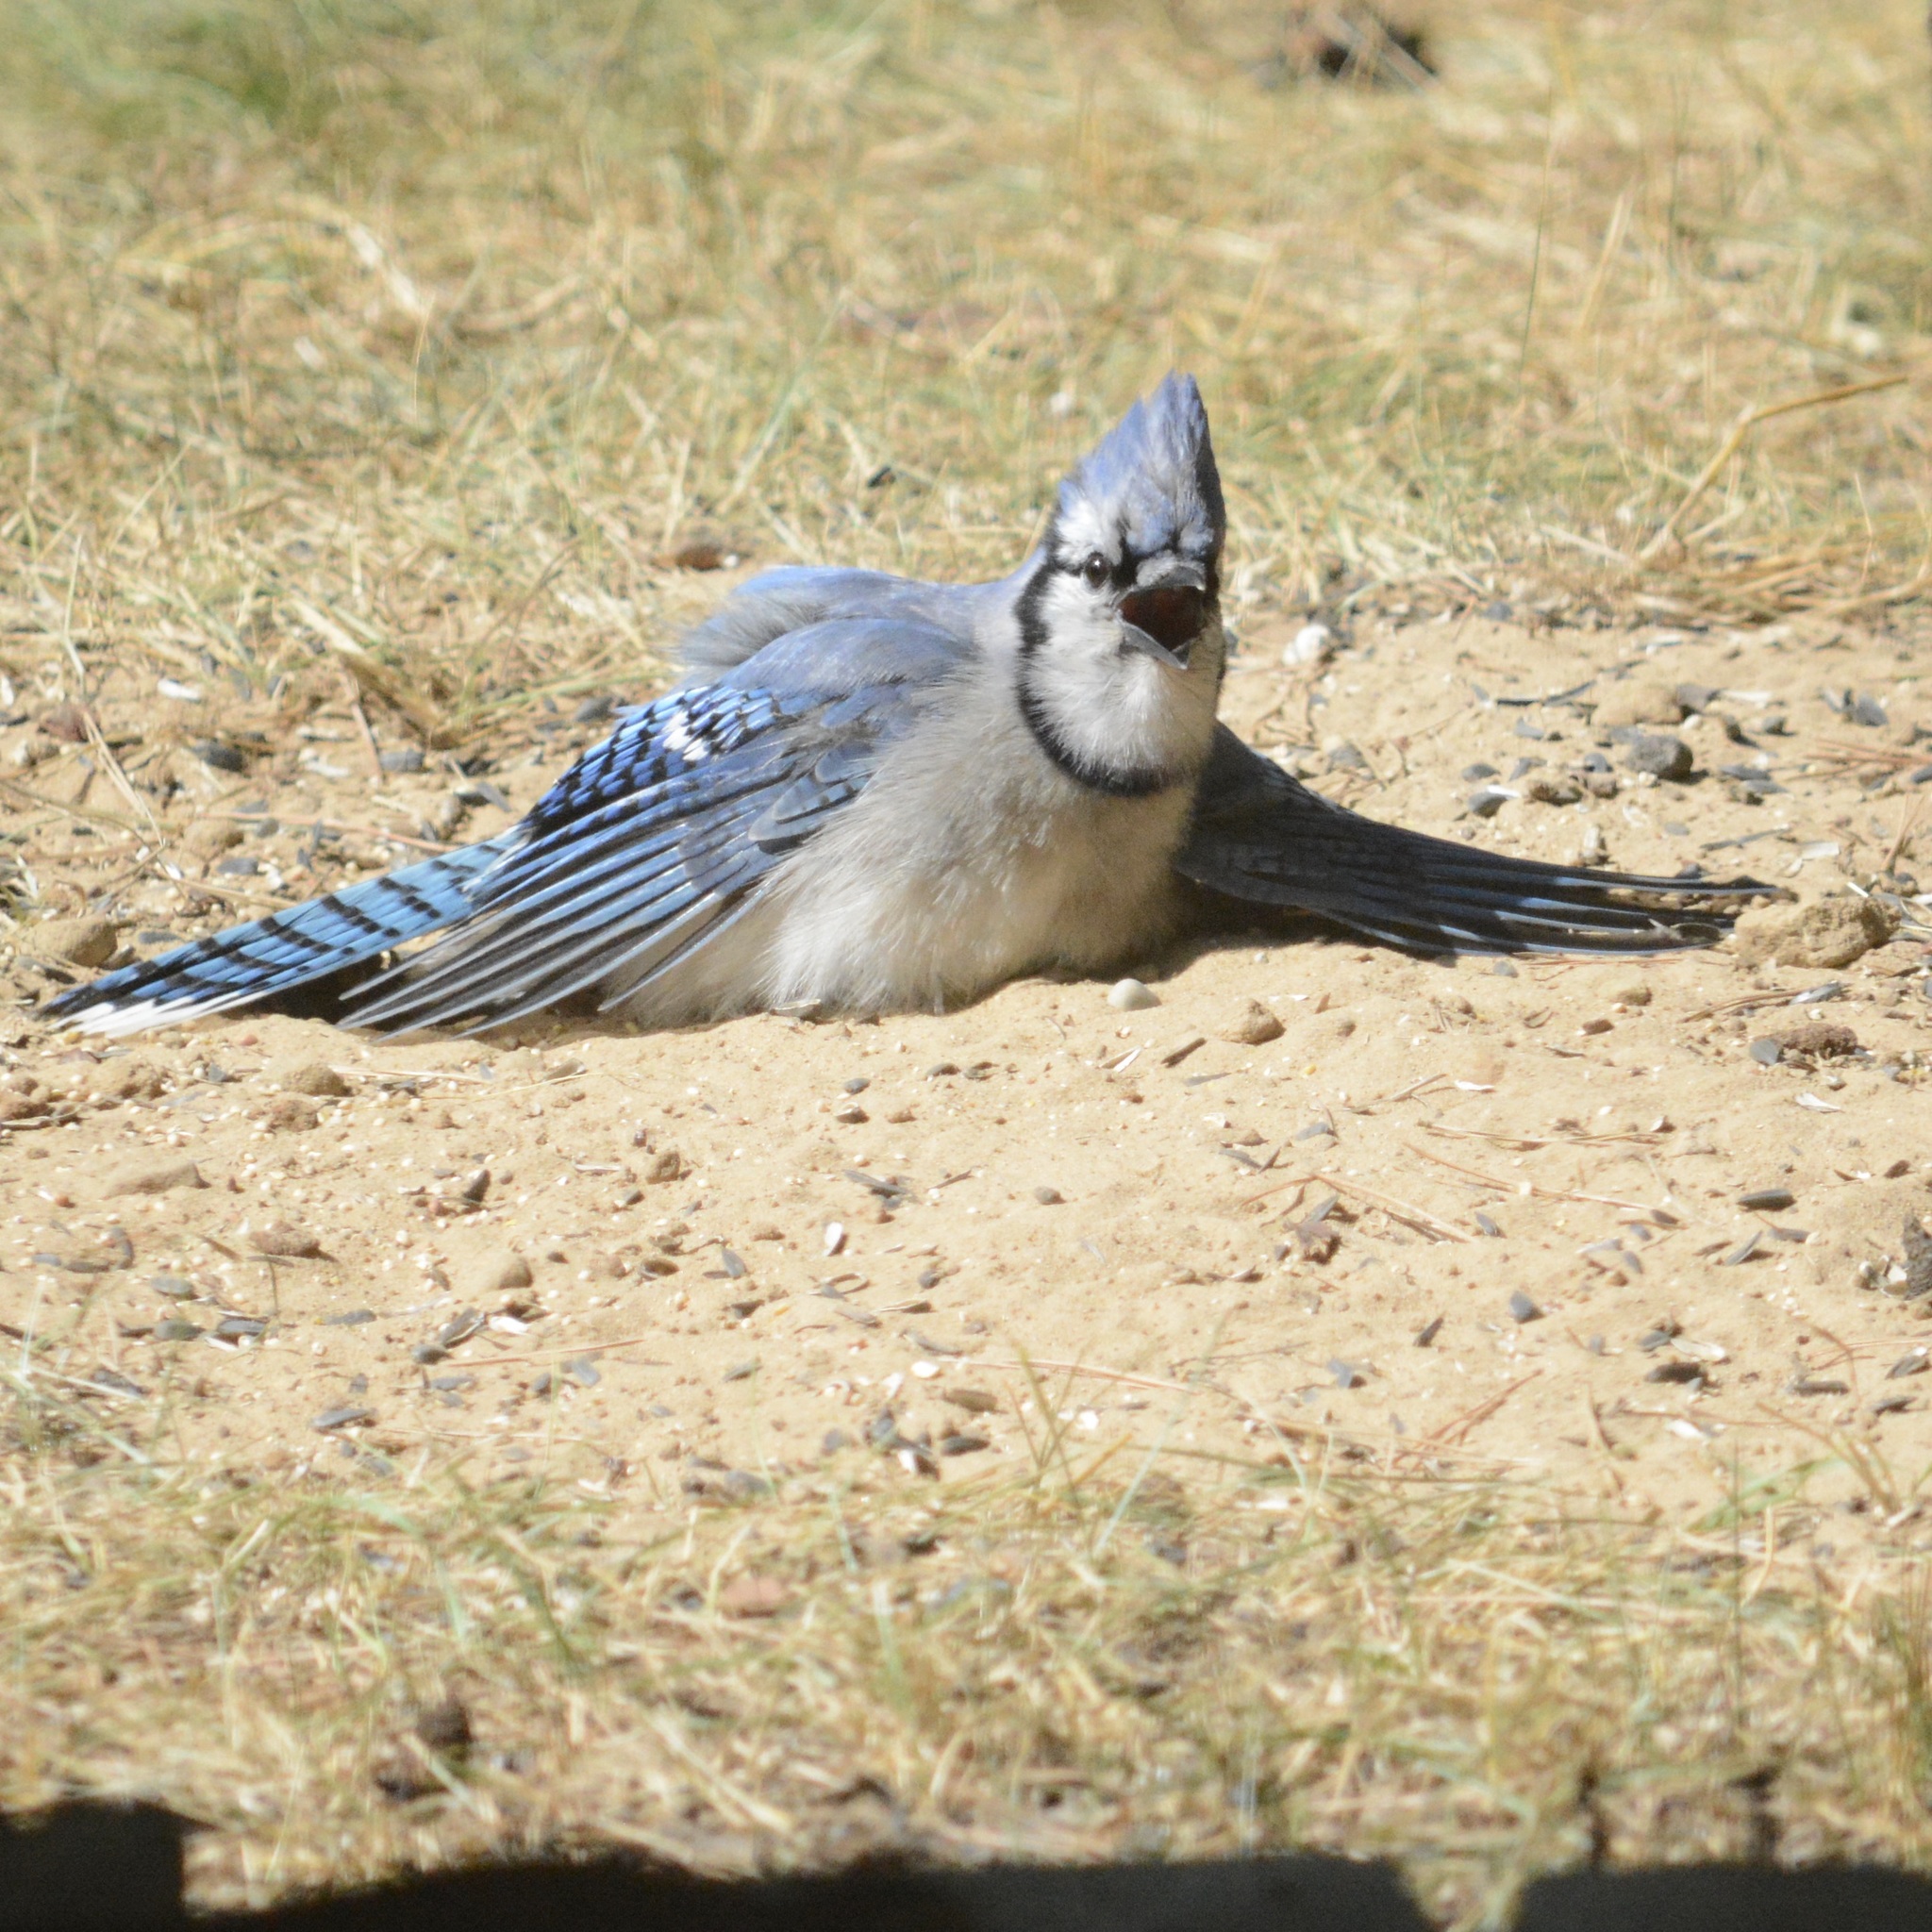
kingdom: Animalia
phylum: Chordata
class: Aves
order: Passeriformes
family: Corvidae
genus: Cyanocitta
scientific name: Cyanocitta cristata
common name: Blue jay
